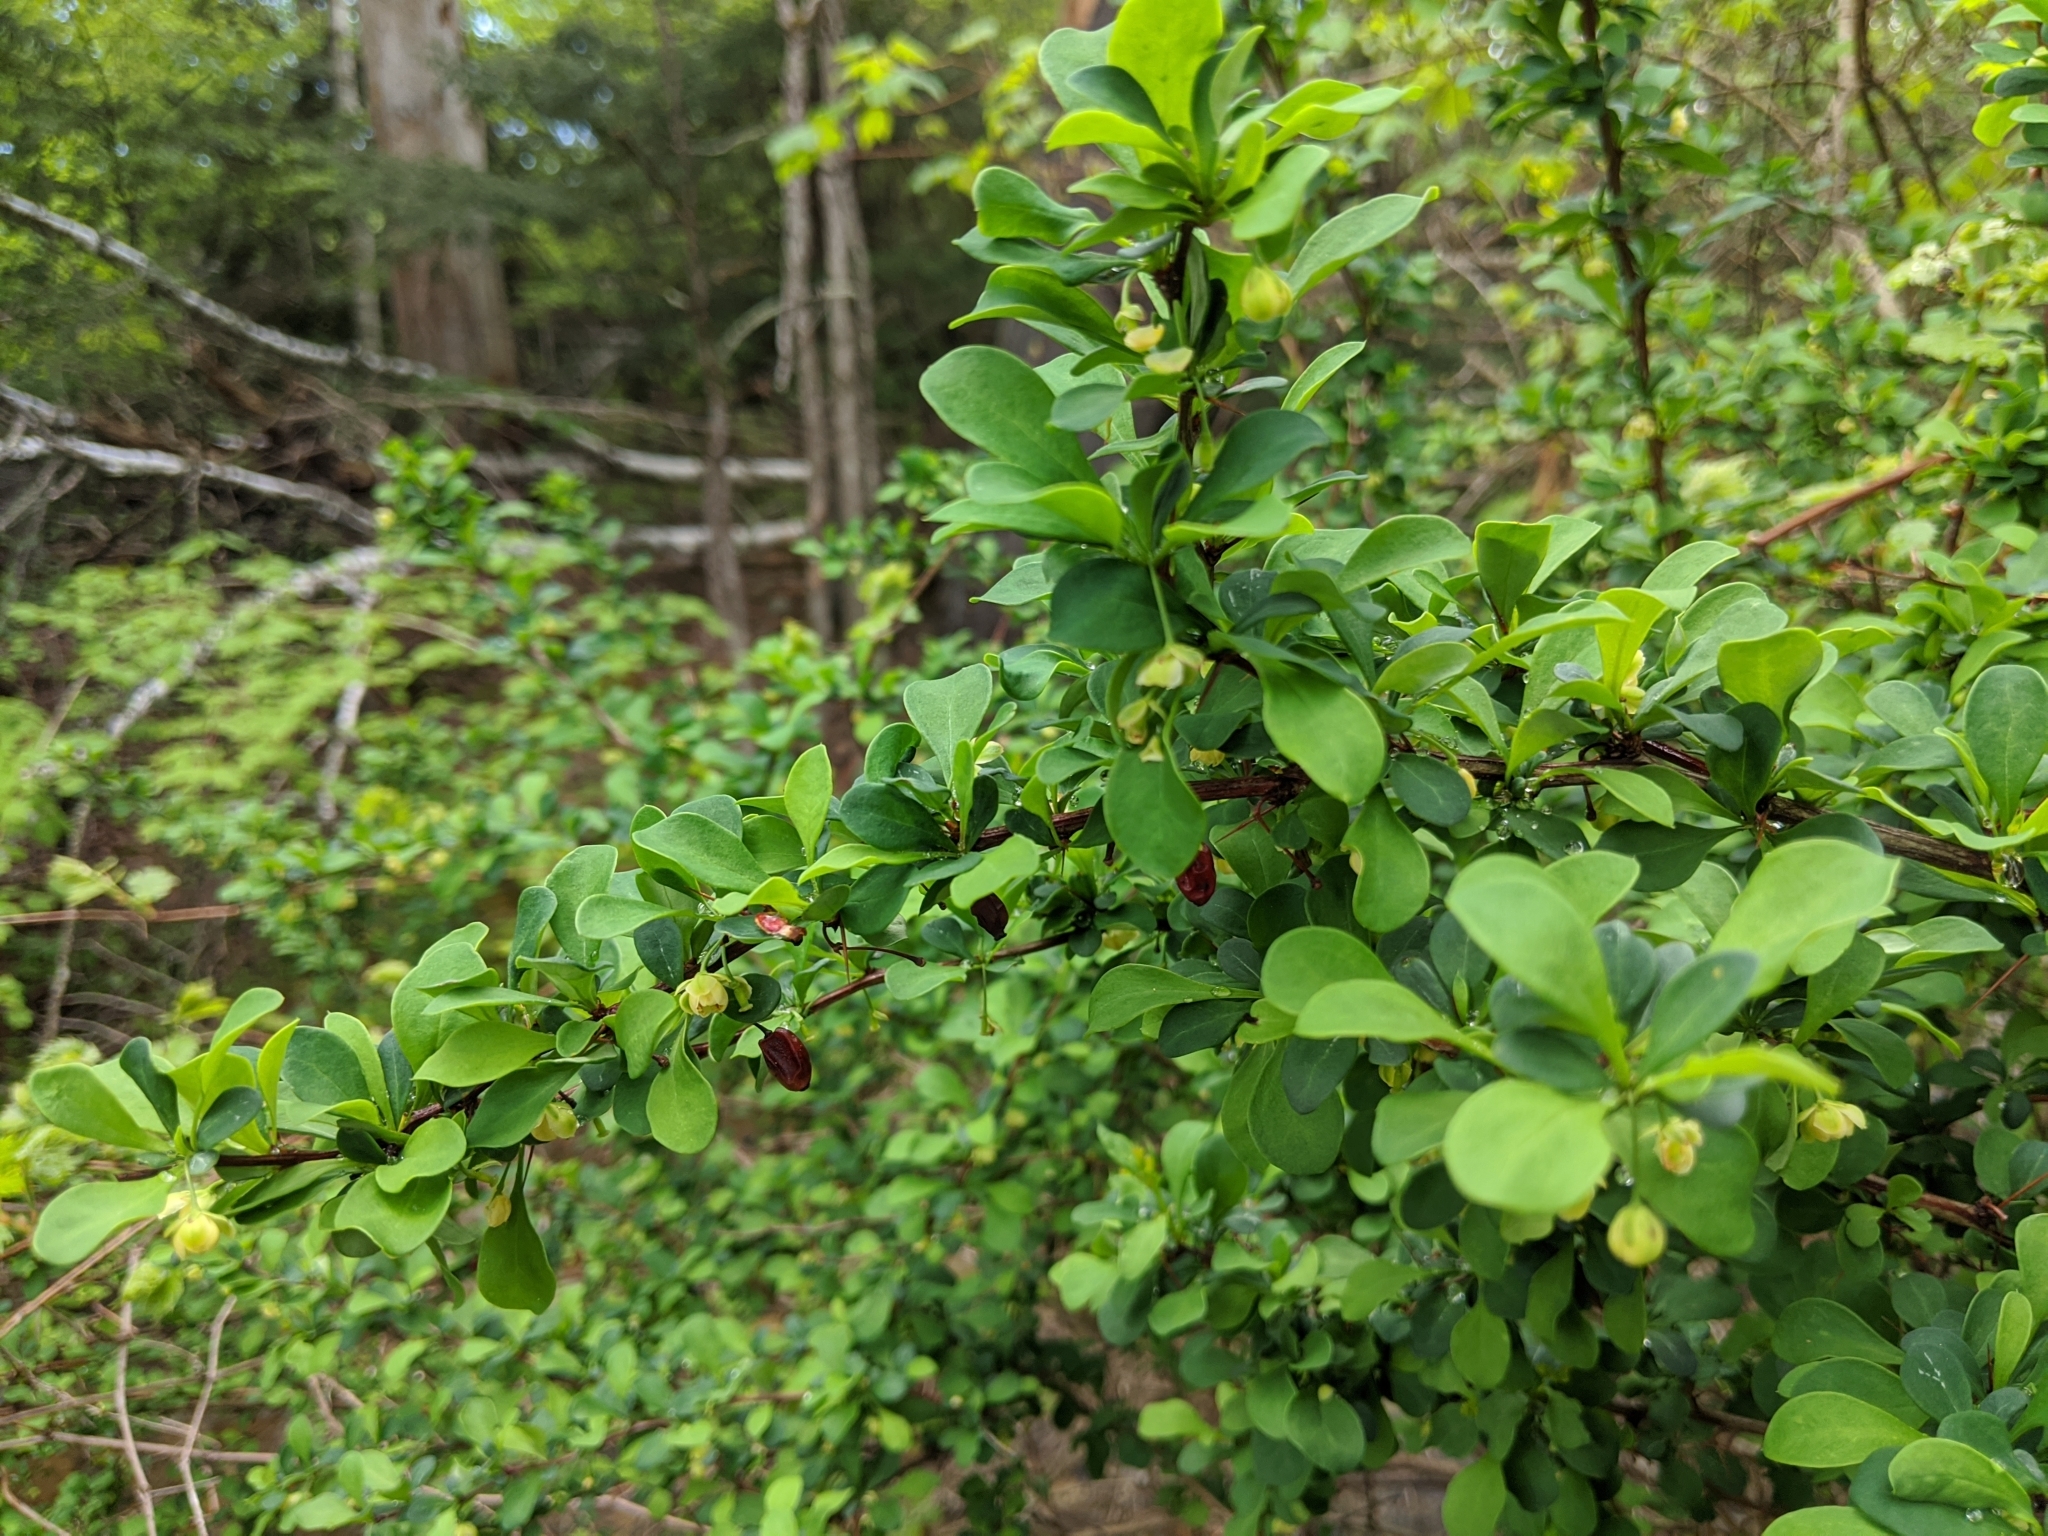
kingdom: Plantae
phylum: Tracheophyta
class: Magnoliopsida
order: Ranunculales
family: Berberidaceae
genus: Berberis
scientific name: Berberis thunbergii
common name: Japanese barberry
